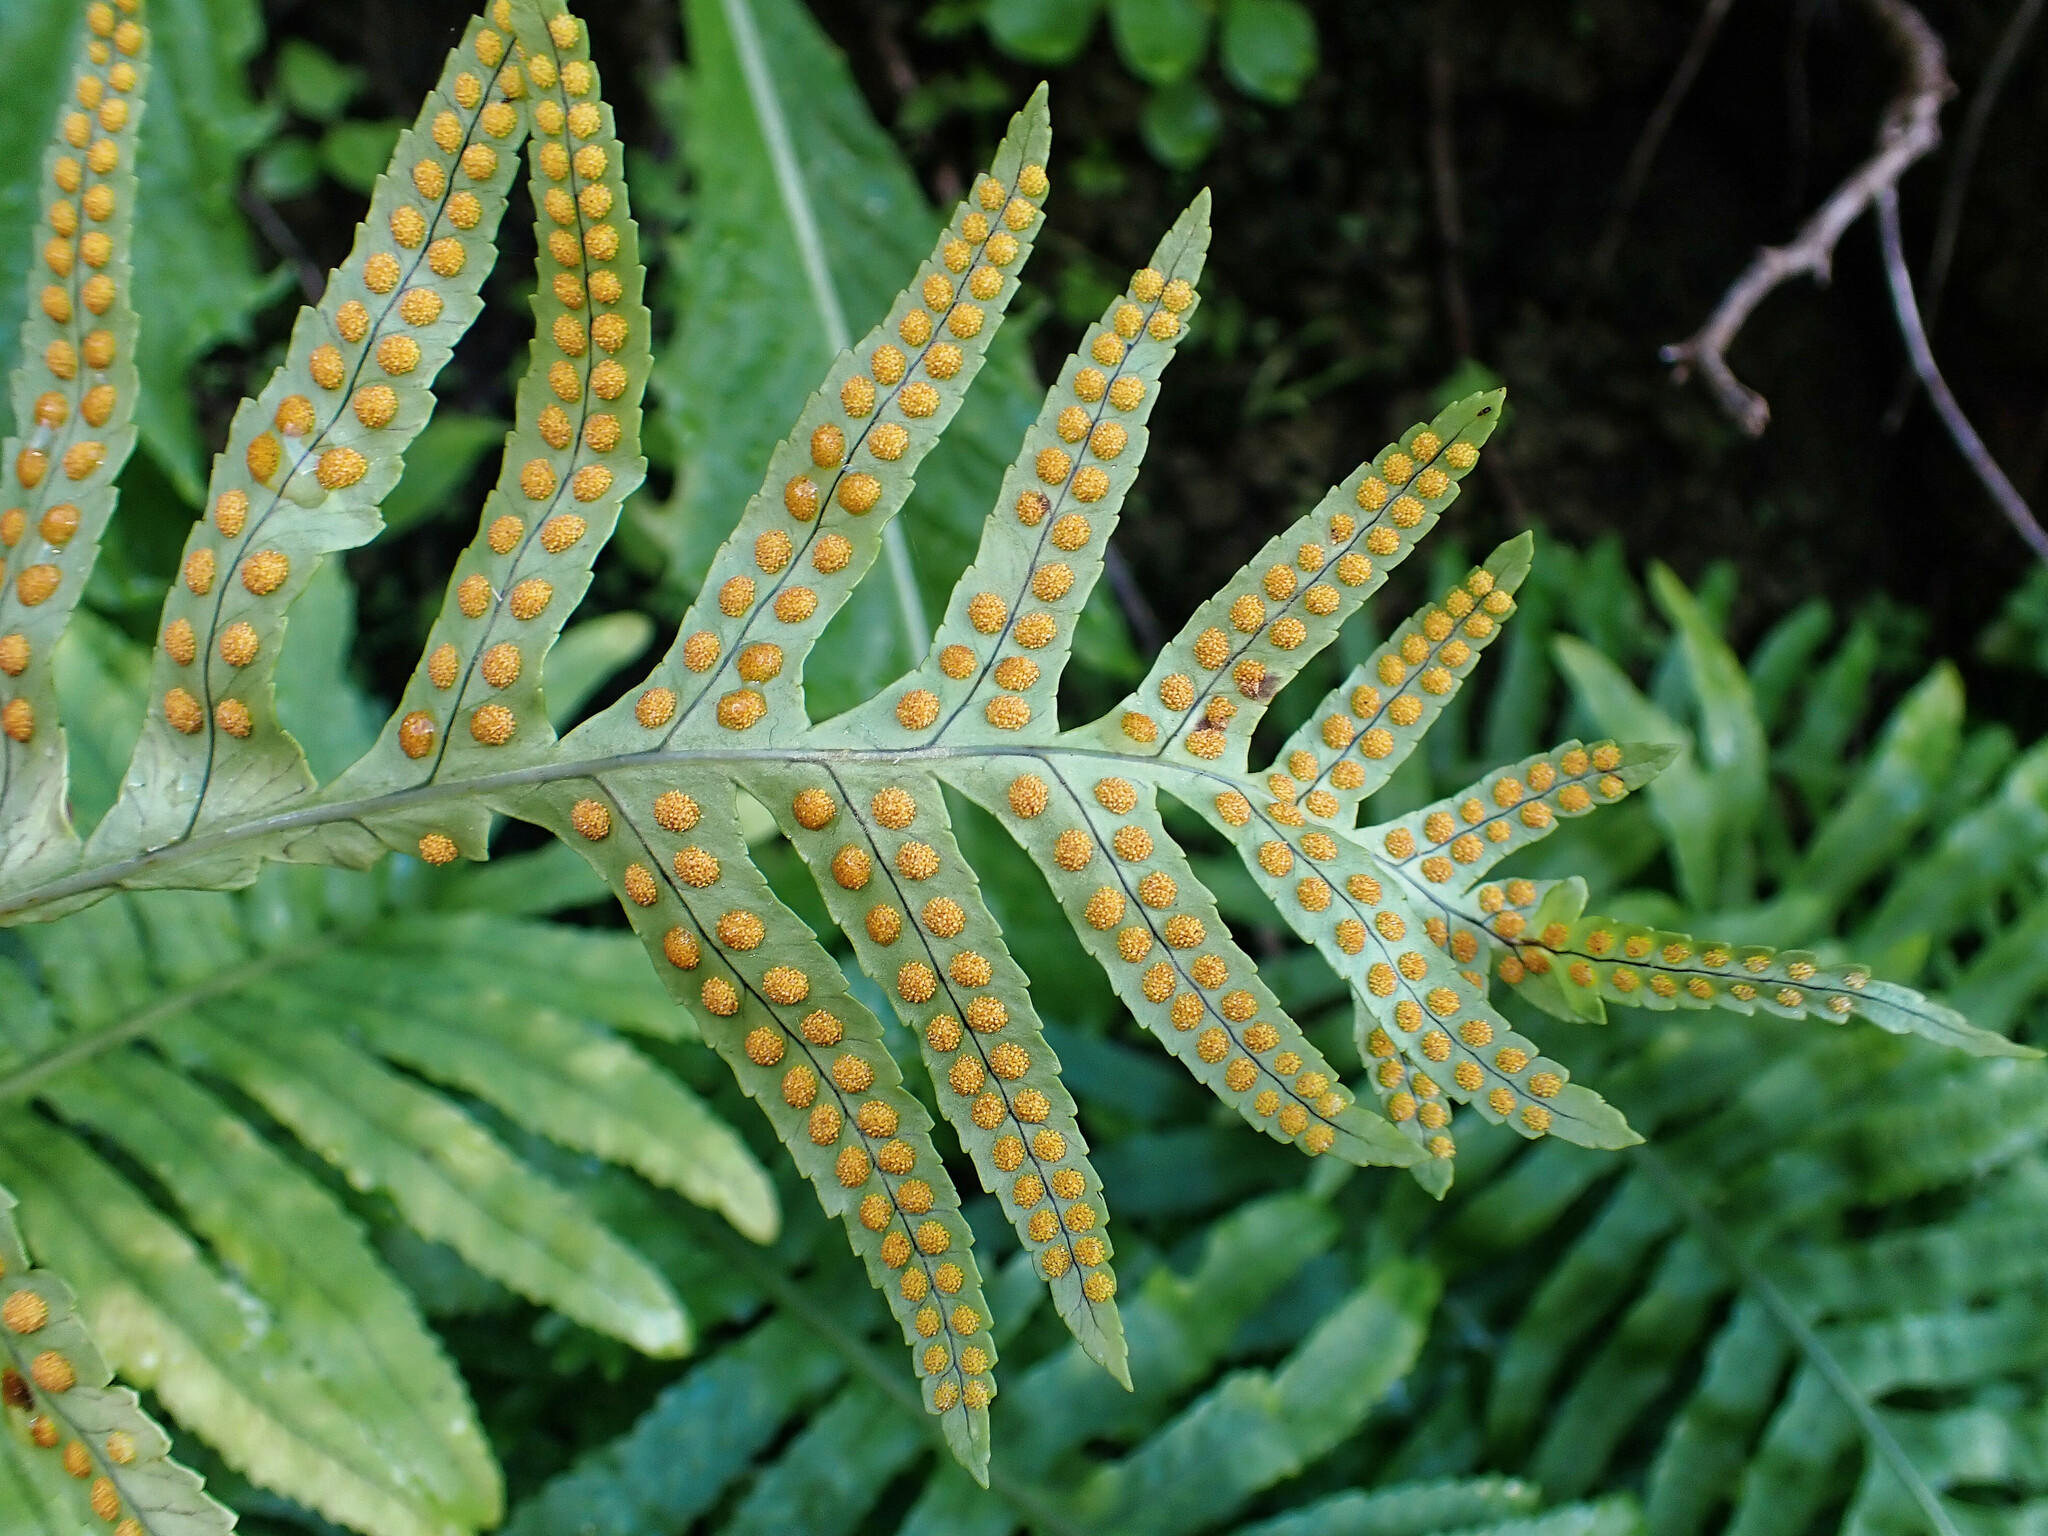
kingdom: Plantae
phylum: Tracheophyta
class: Polypodiopsida
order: Polypodiales
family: Polypodiaceae
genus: Polypodium
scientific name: Polypodium macaronesicum
